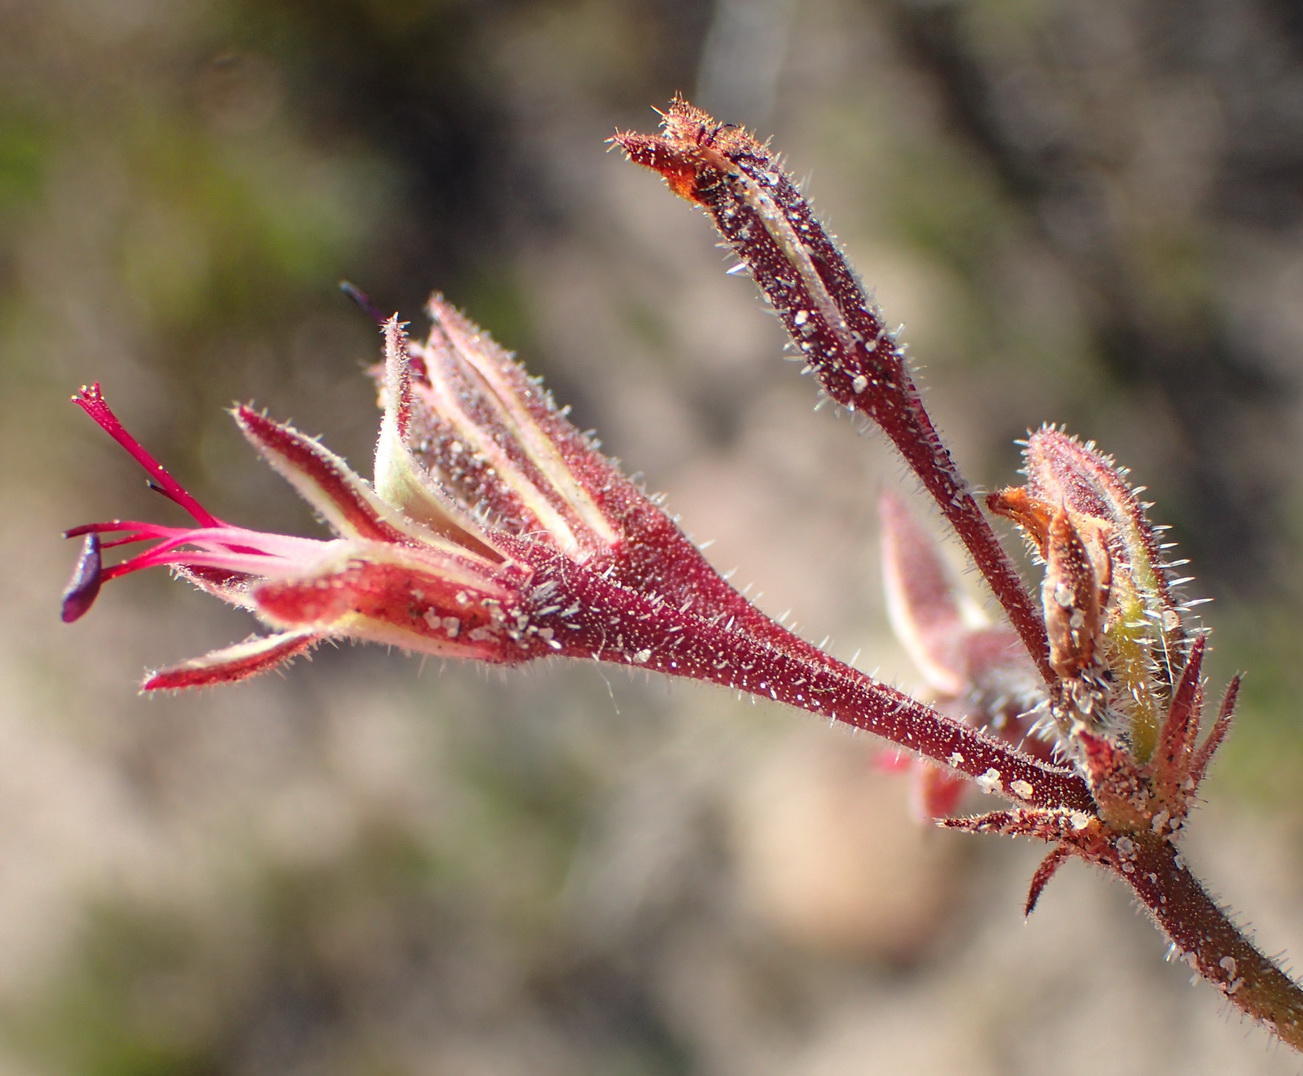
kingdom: Plantae
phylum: Tracheophyta
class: Magnoliopsida
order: Geraniales
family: Geraniaceae
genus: Pelargonium
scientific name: Pelargonium dipetalum
